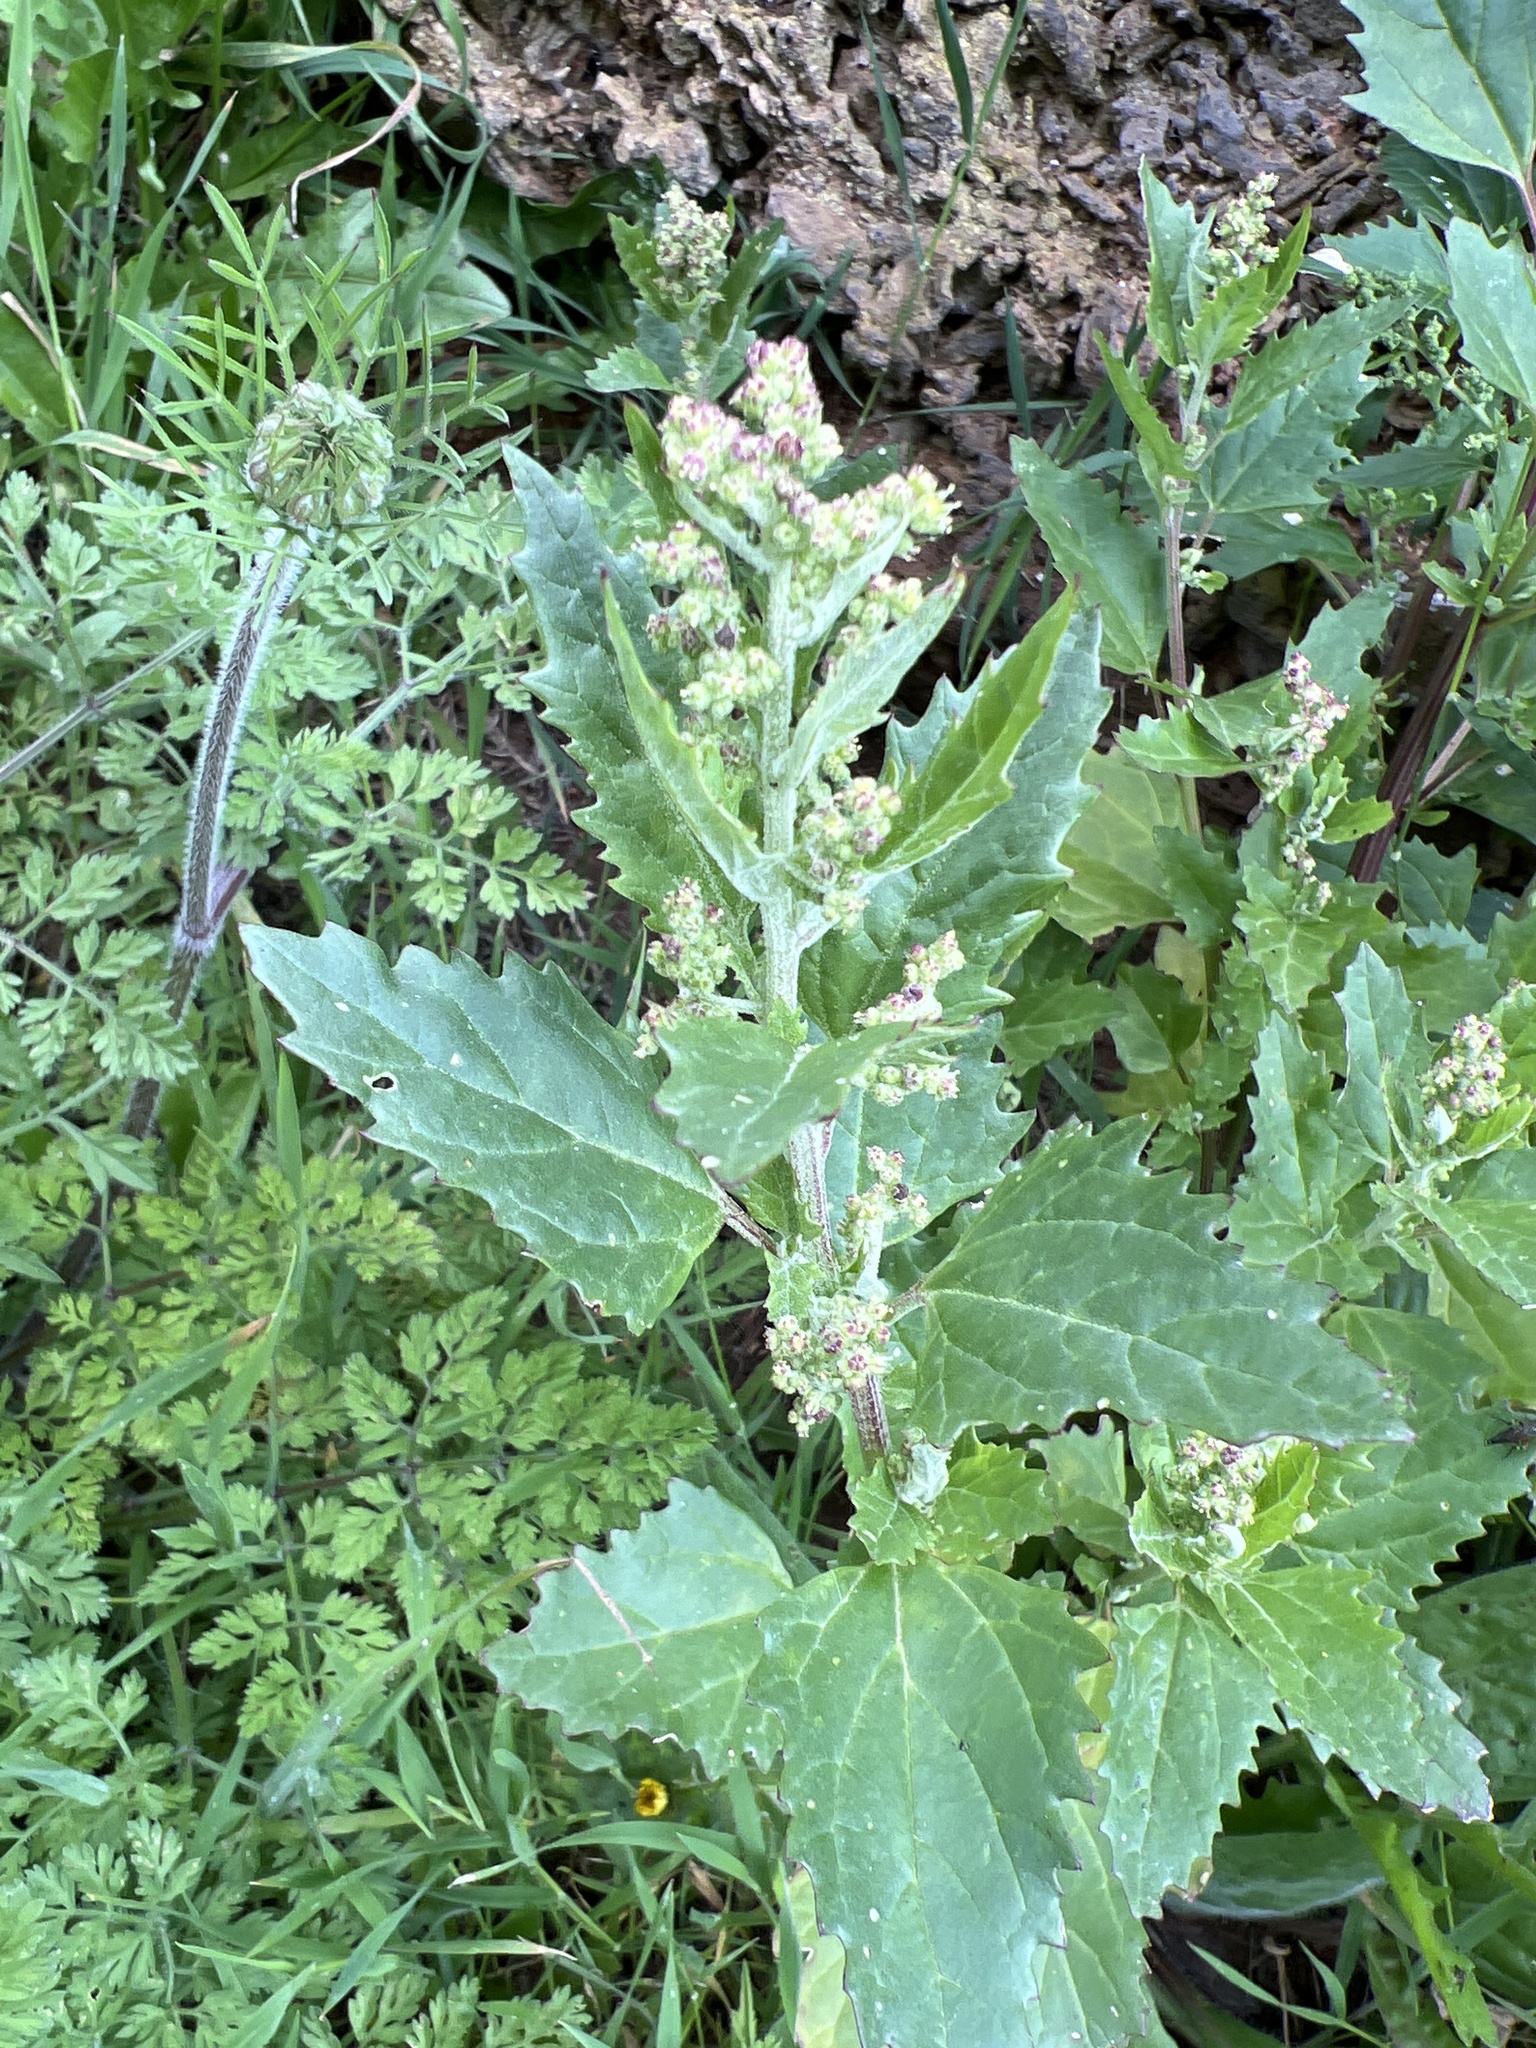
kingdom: Plantae
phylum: Tracheophyta
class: Magnoliopsida
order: Caryophyllales
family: Amaranthaceae
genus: Chenopodiastrum
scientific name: Chenopodiastrum murale
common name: Sowbane
